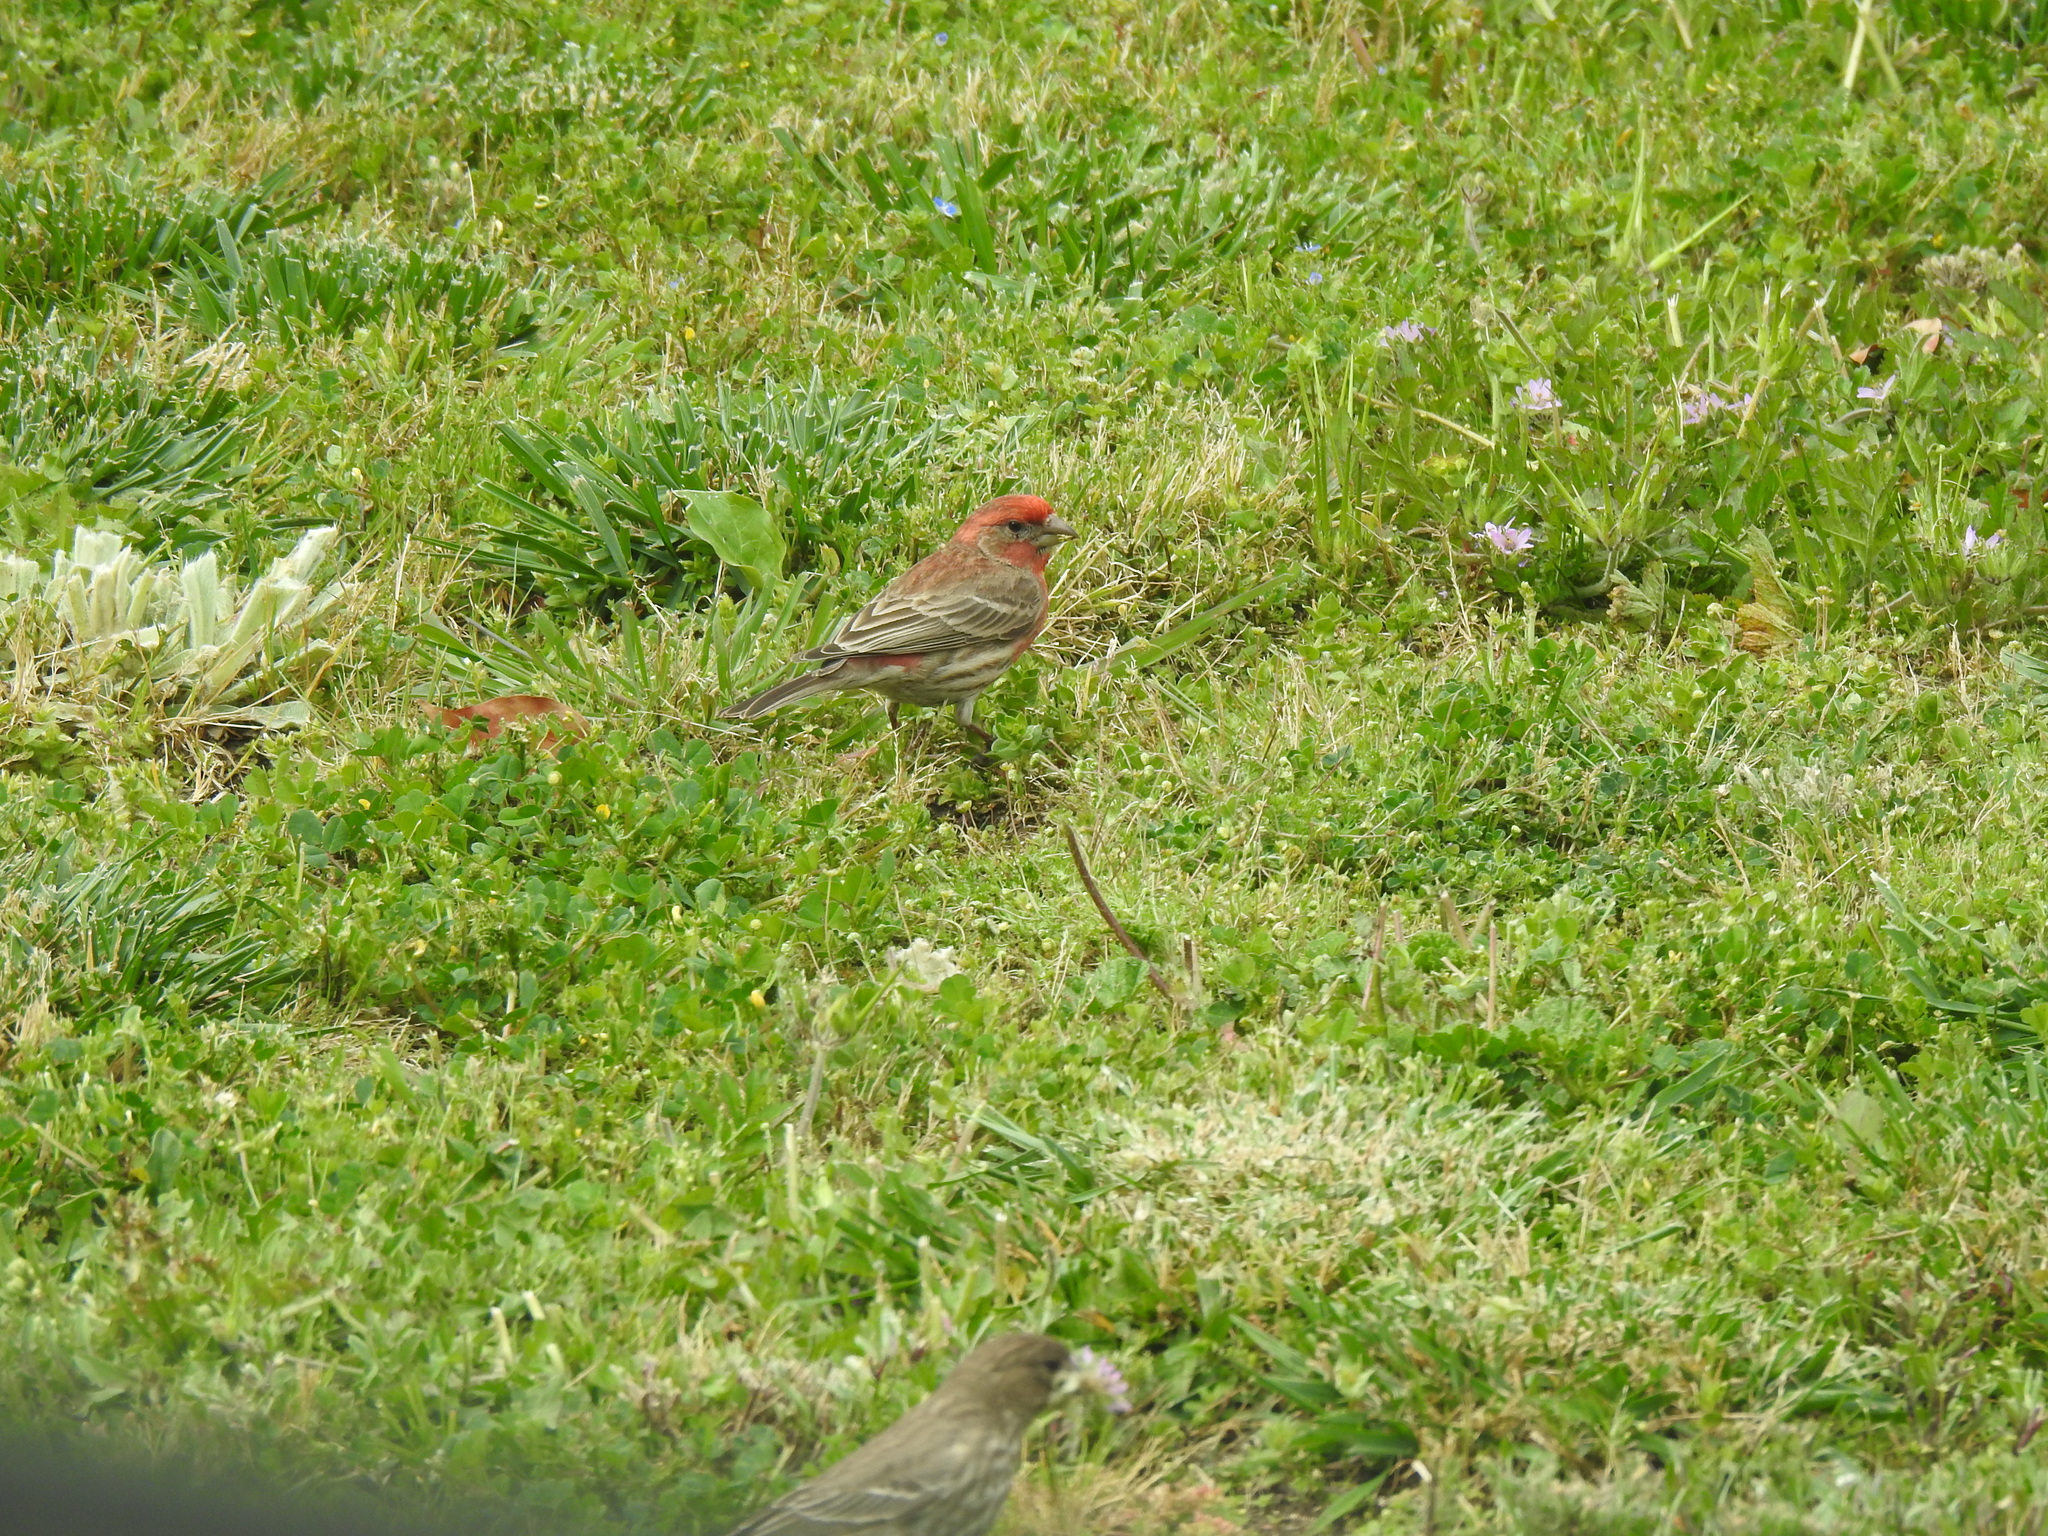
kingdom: Animalia
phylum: Chordata
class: Aves
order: Passeriformes
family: Fringillidae
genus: Haemorhous
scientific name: Haemorhous mexicanus
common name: House finch
